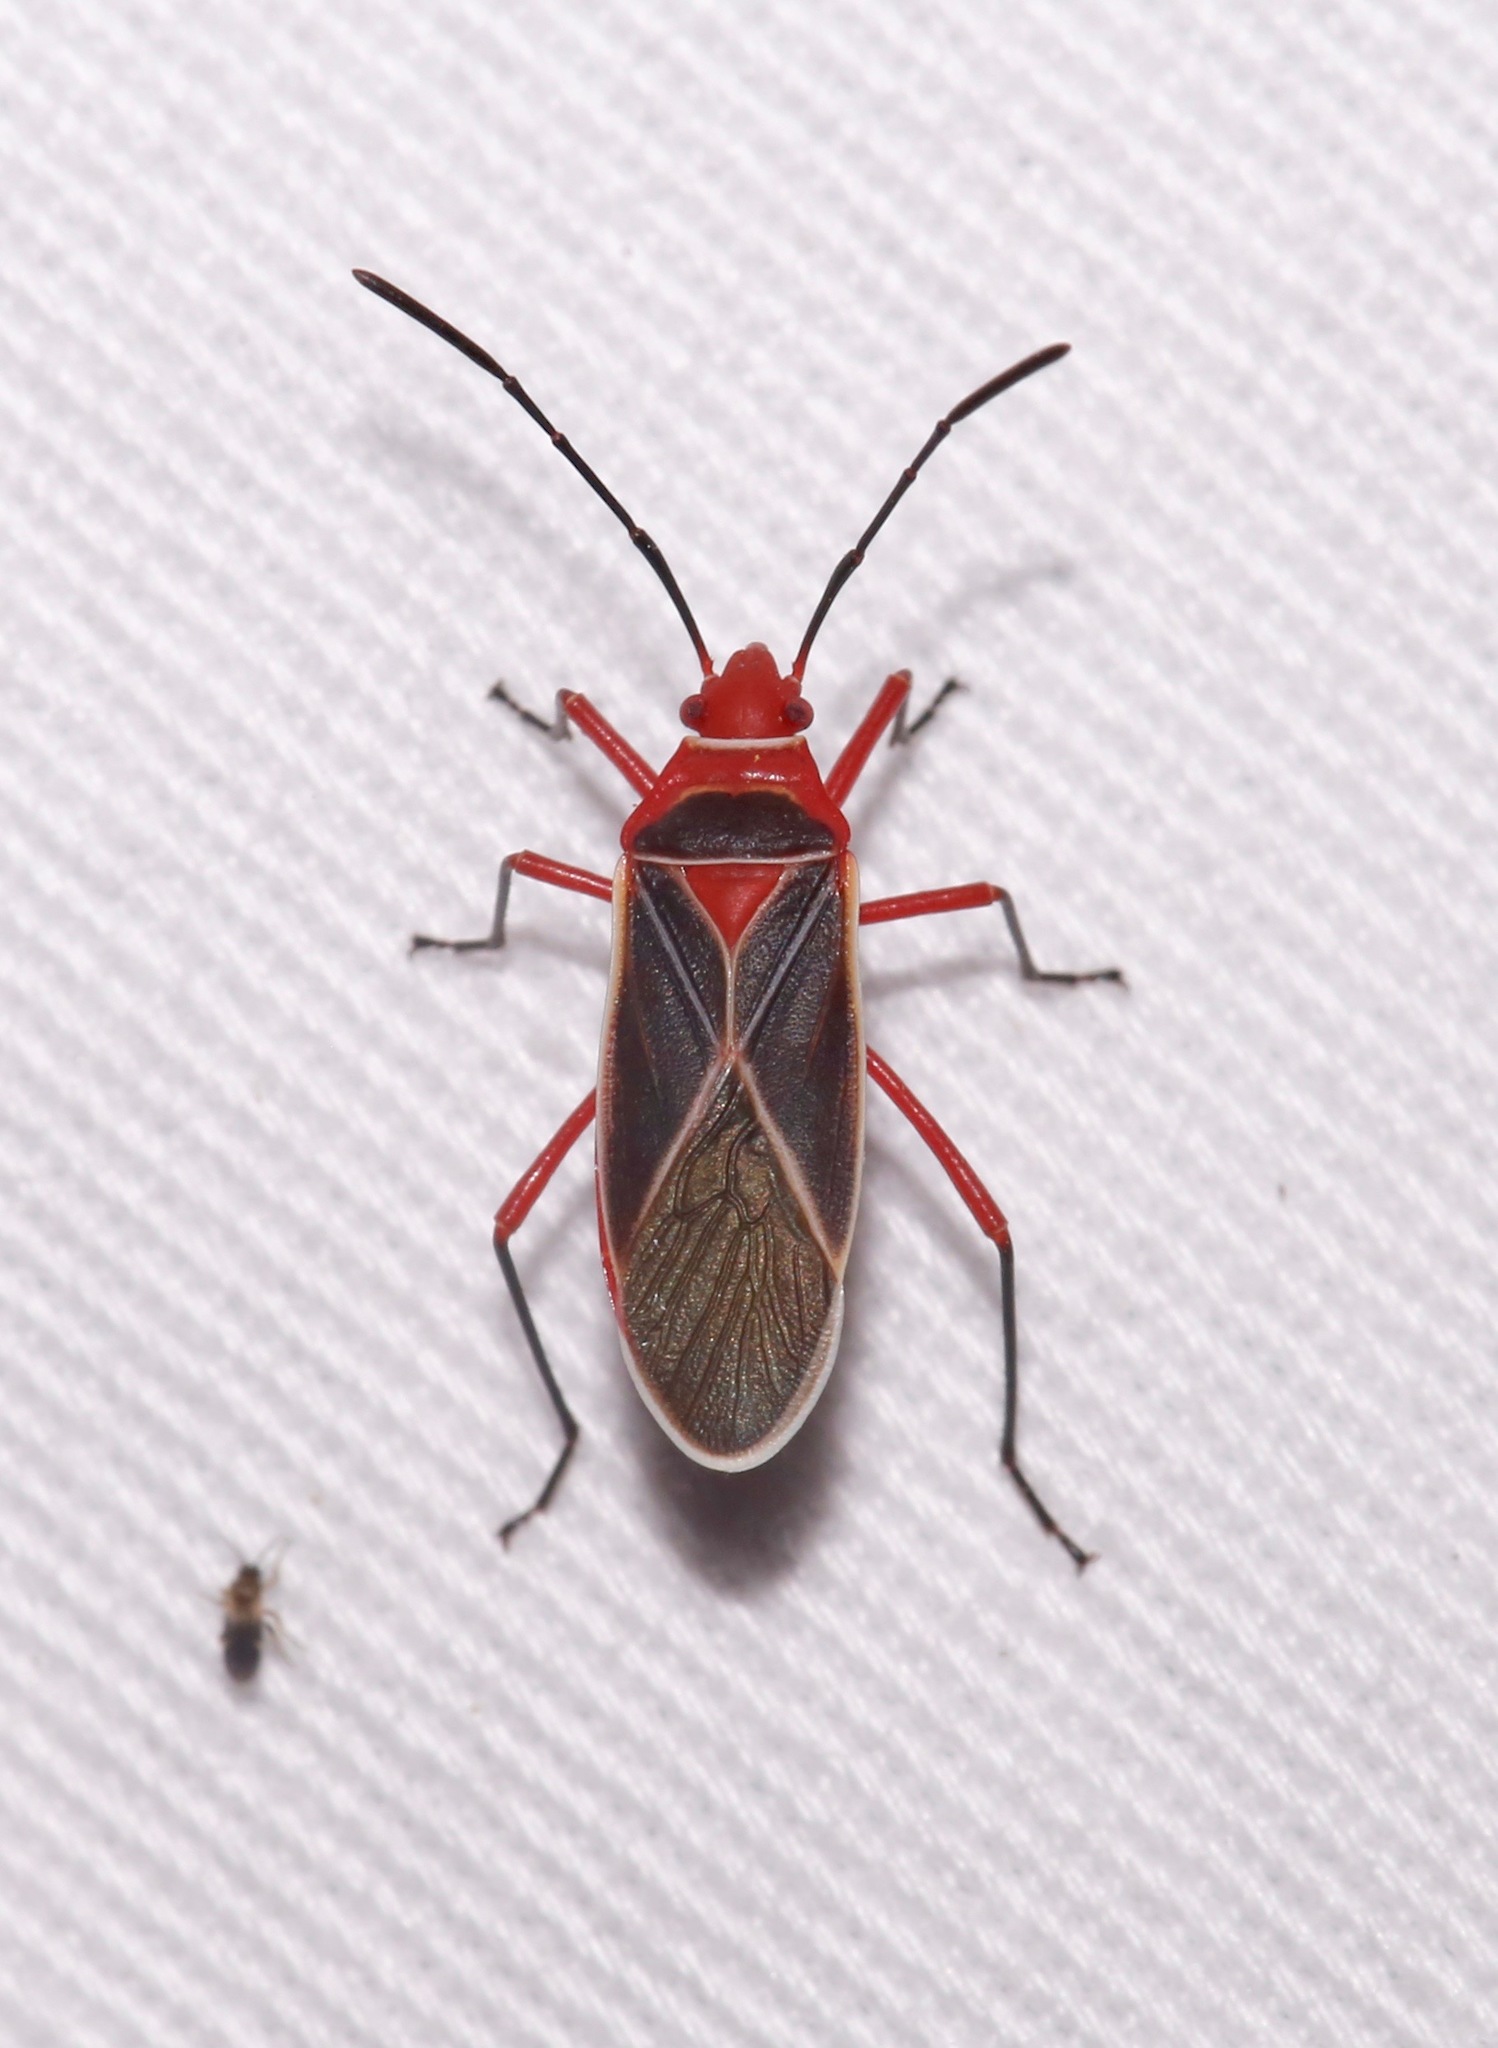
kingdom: Animalia
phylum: Arthropoda
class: Insecta
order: Hemiptera
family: Pyrrhocoridae
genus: Dysdercus
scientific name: Dysdercus suturellus
